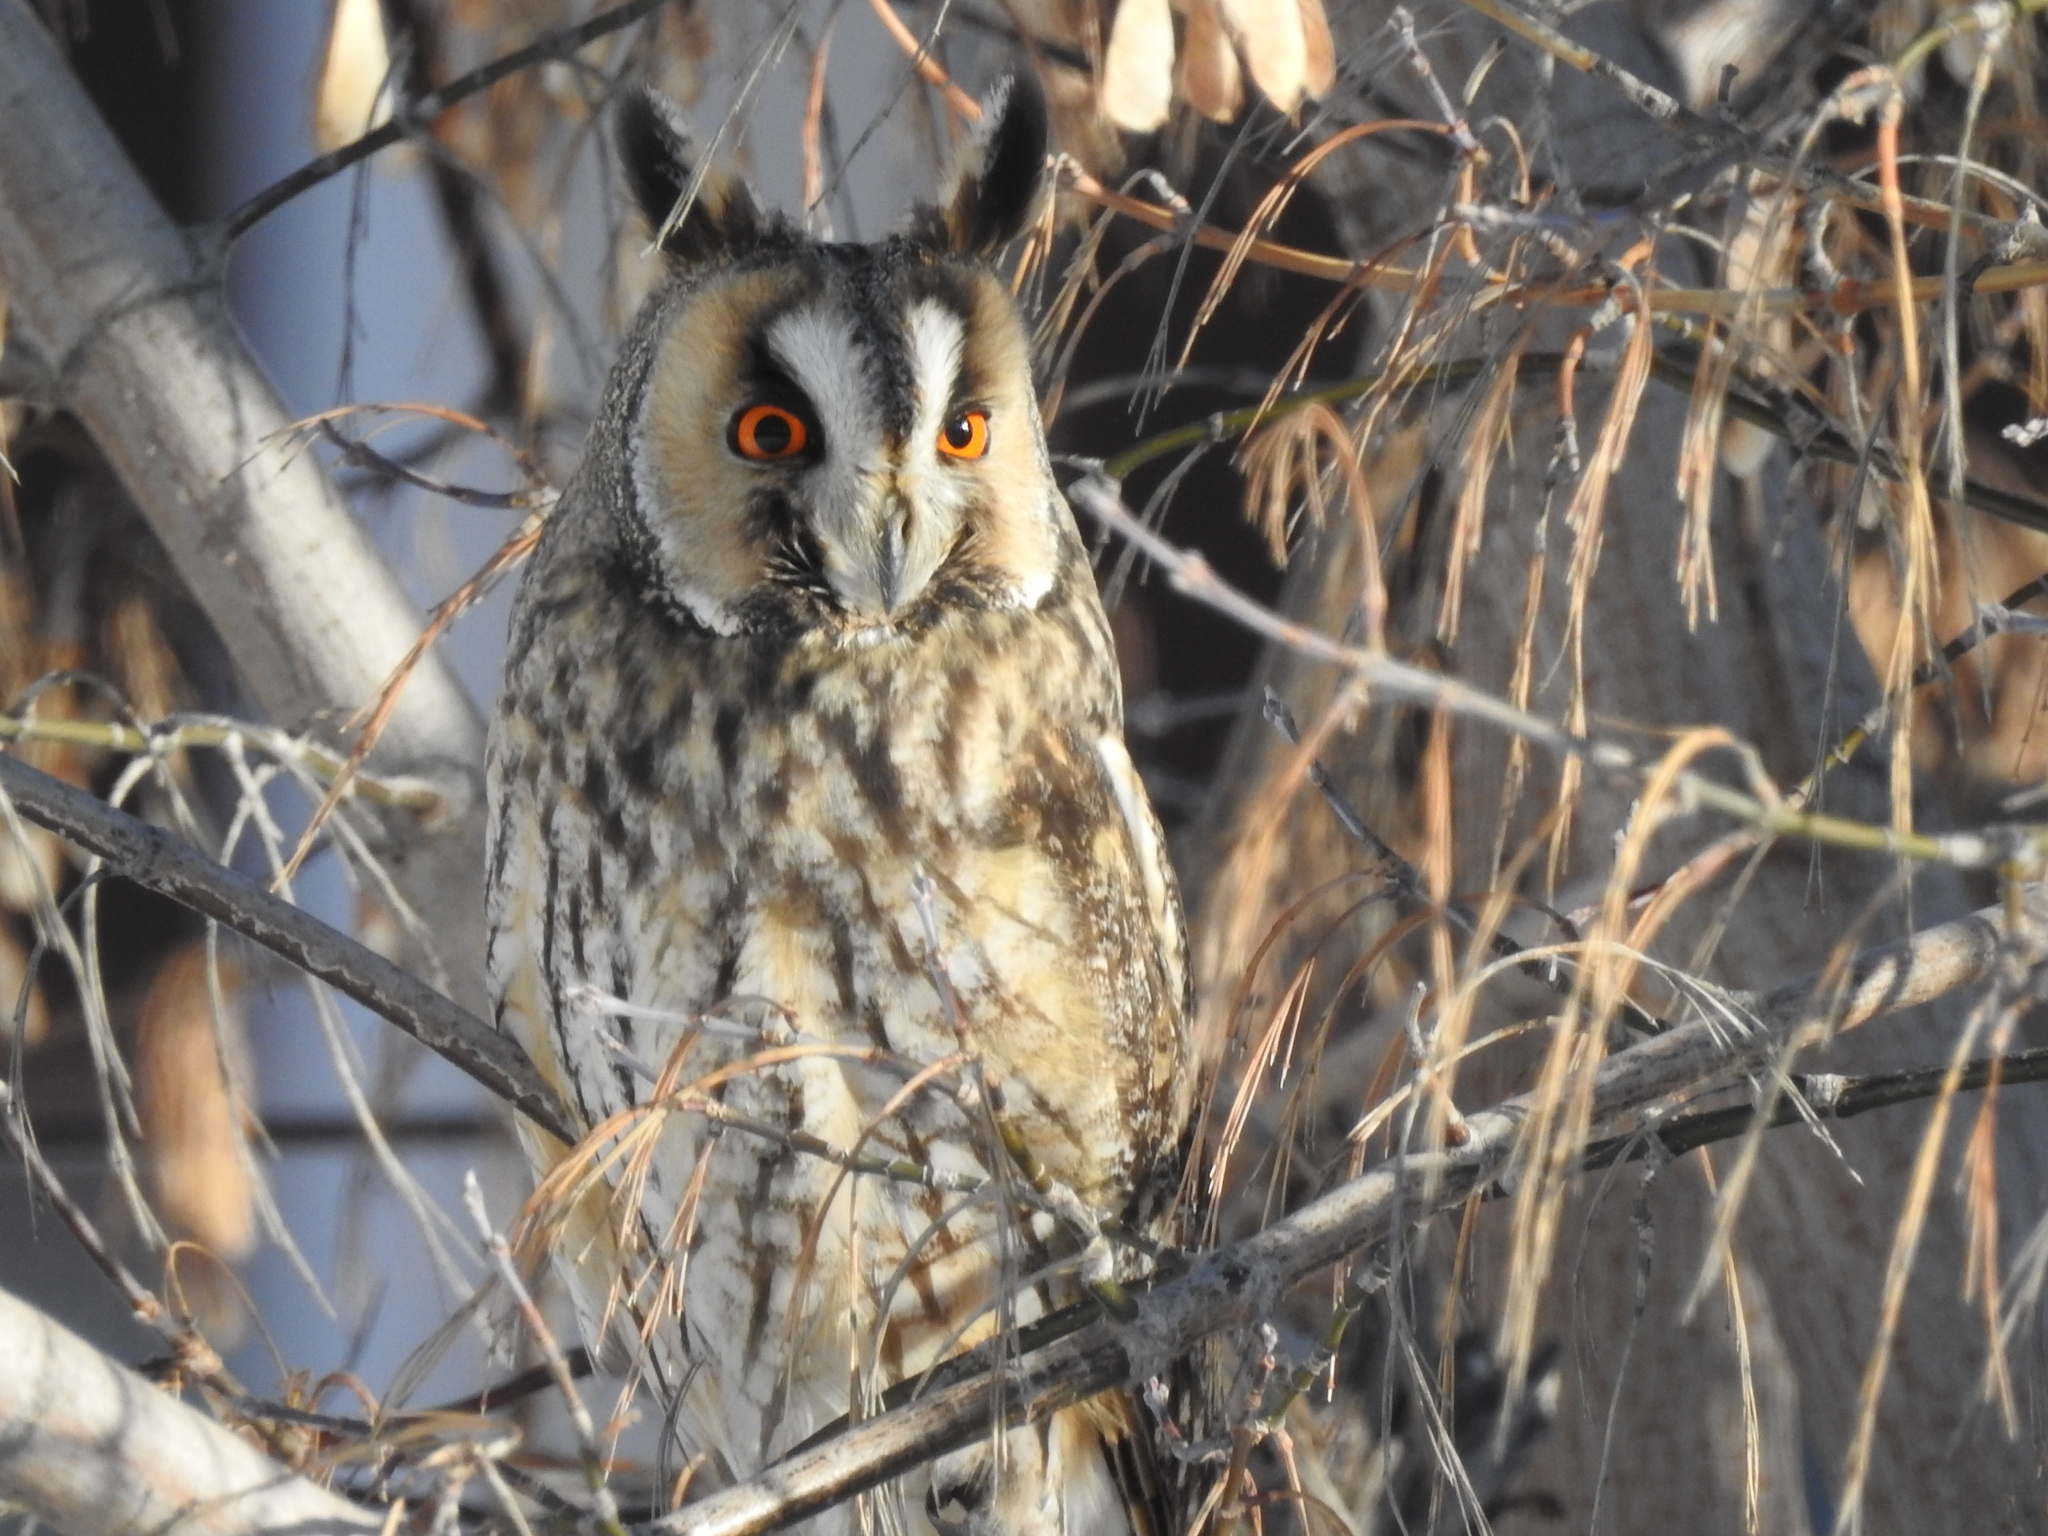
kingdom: Animalia
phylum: Chordata
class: Aves
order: Strigiformes
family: Strigidae
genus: Asio
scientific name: Asio otus
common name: Long-eared owl
